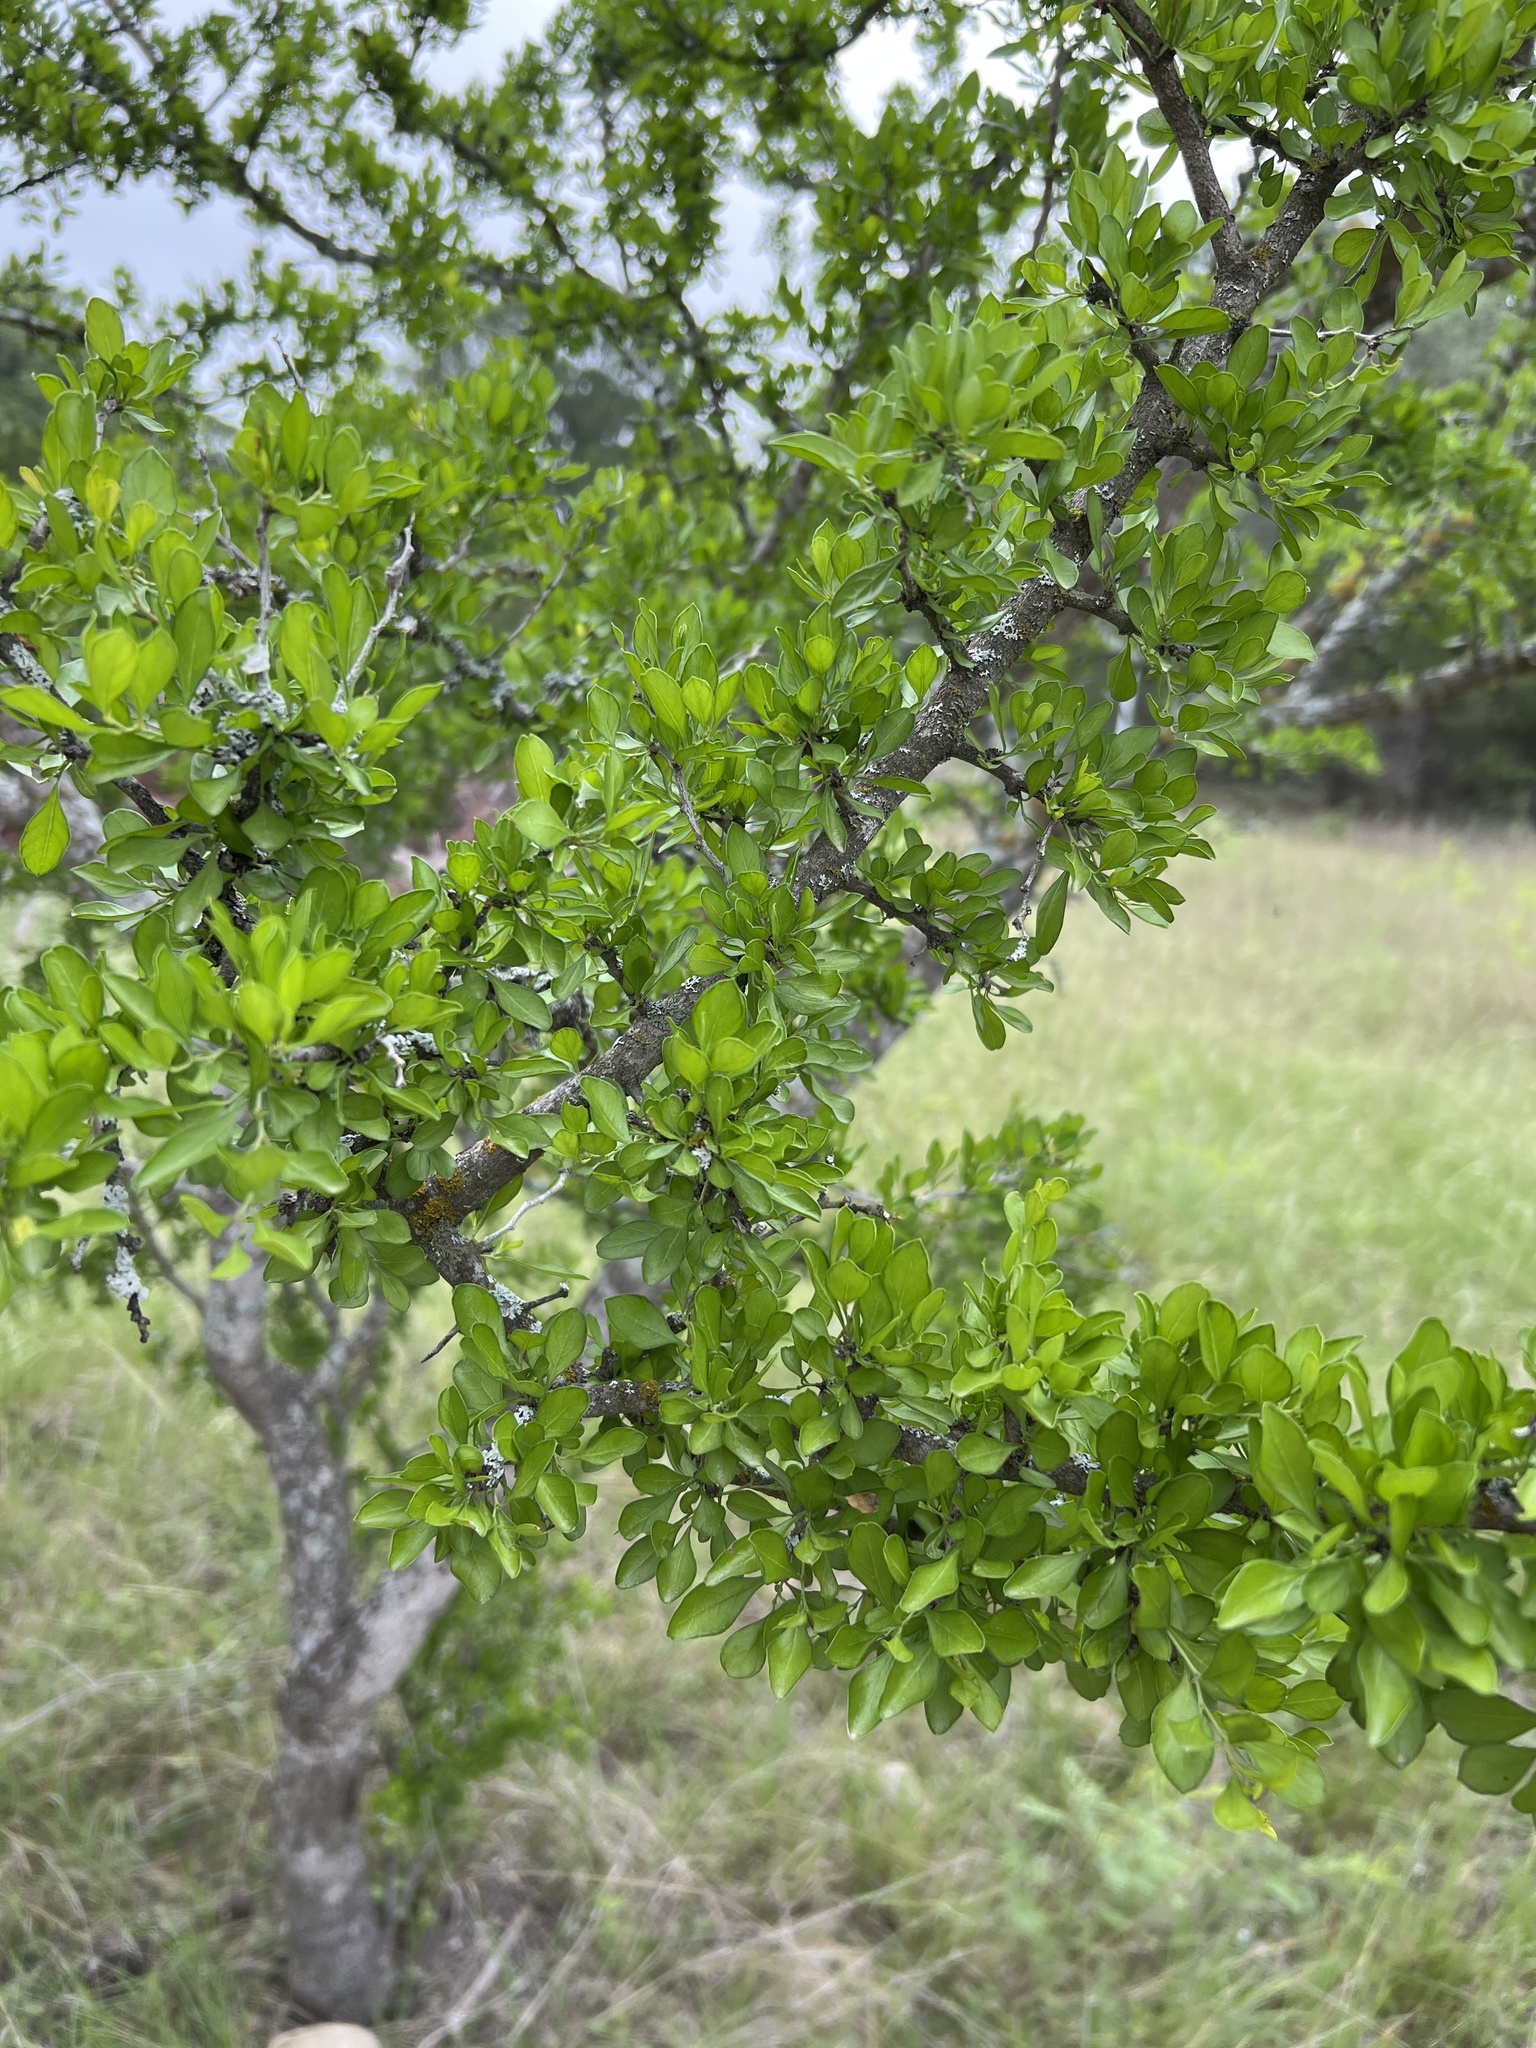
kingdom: Plantae
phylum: Tracheophyta
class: Magnoliopsida
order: Rosales
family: Rhamnaceae
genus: Condalia
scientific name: Condalia hookeri
